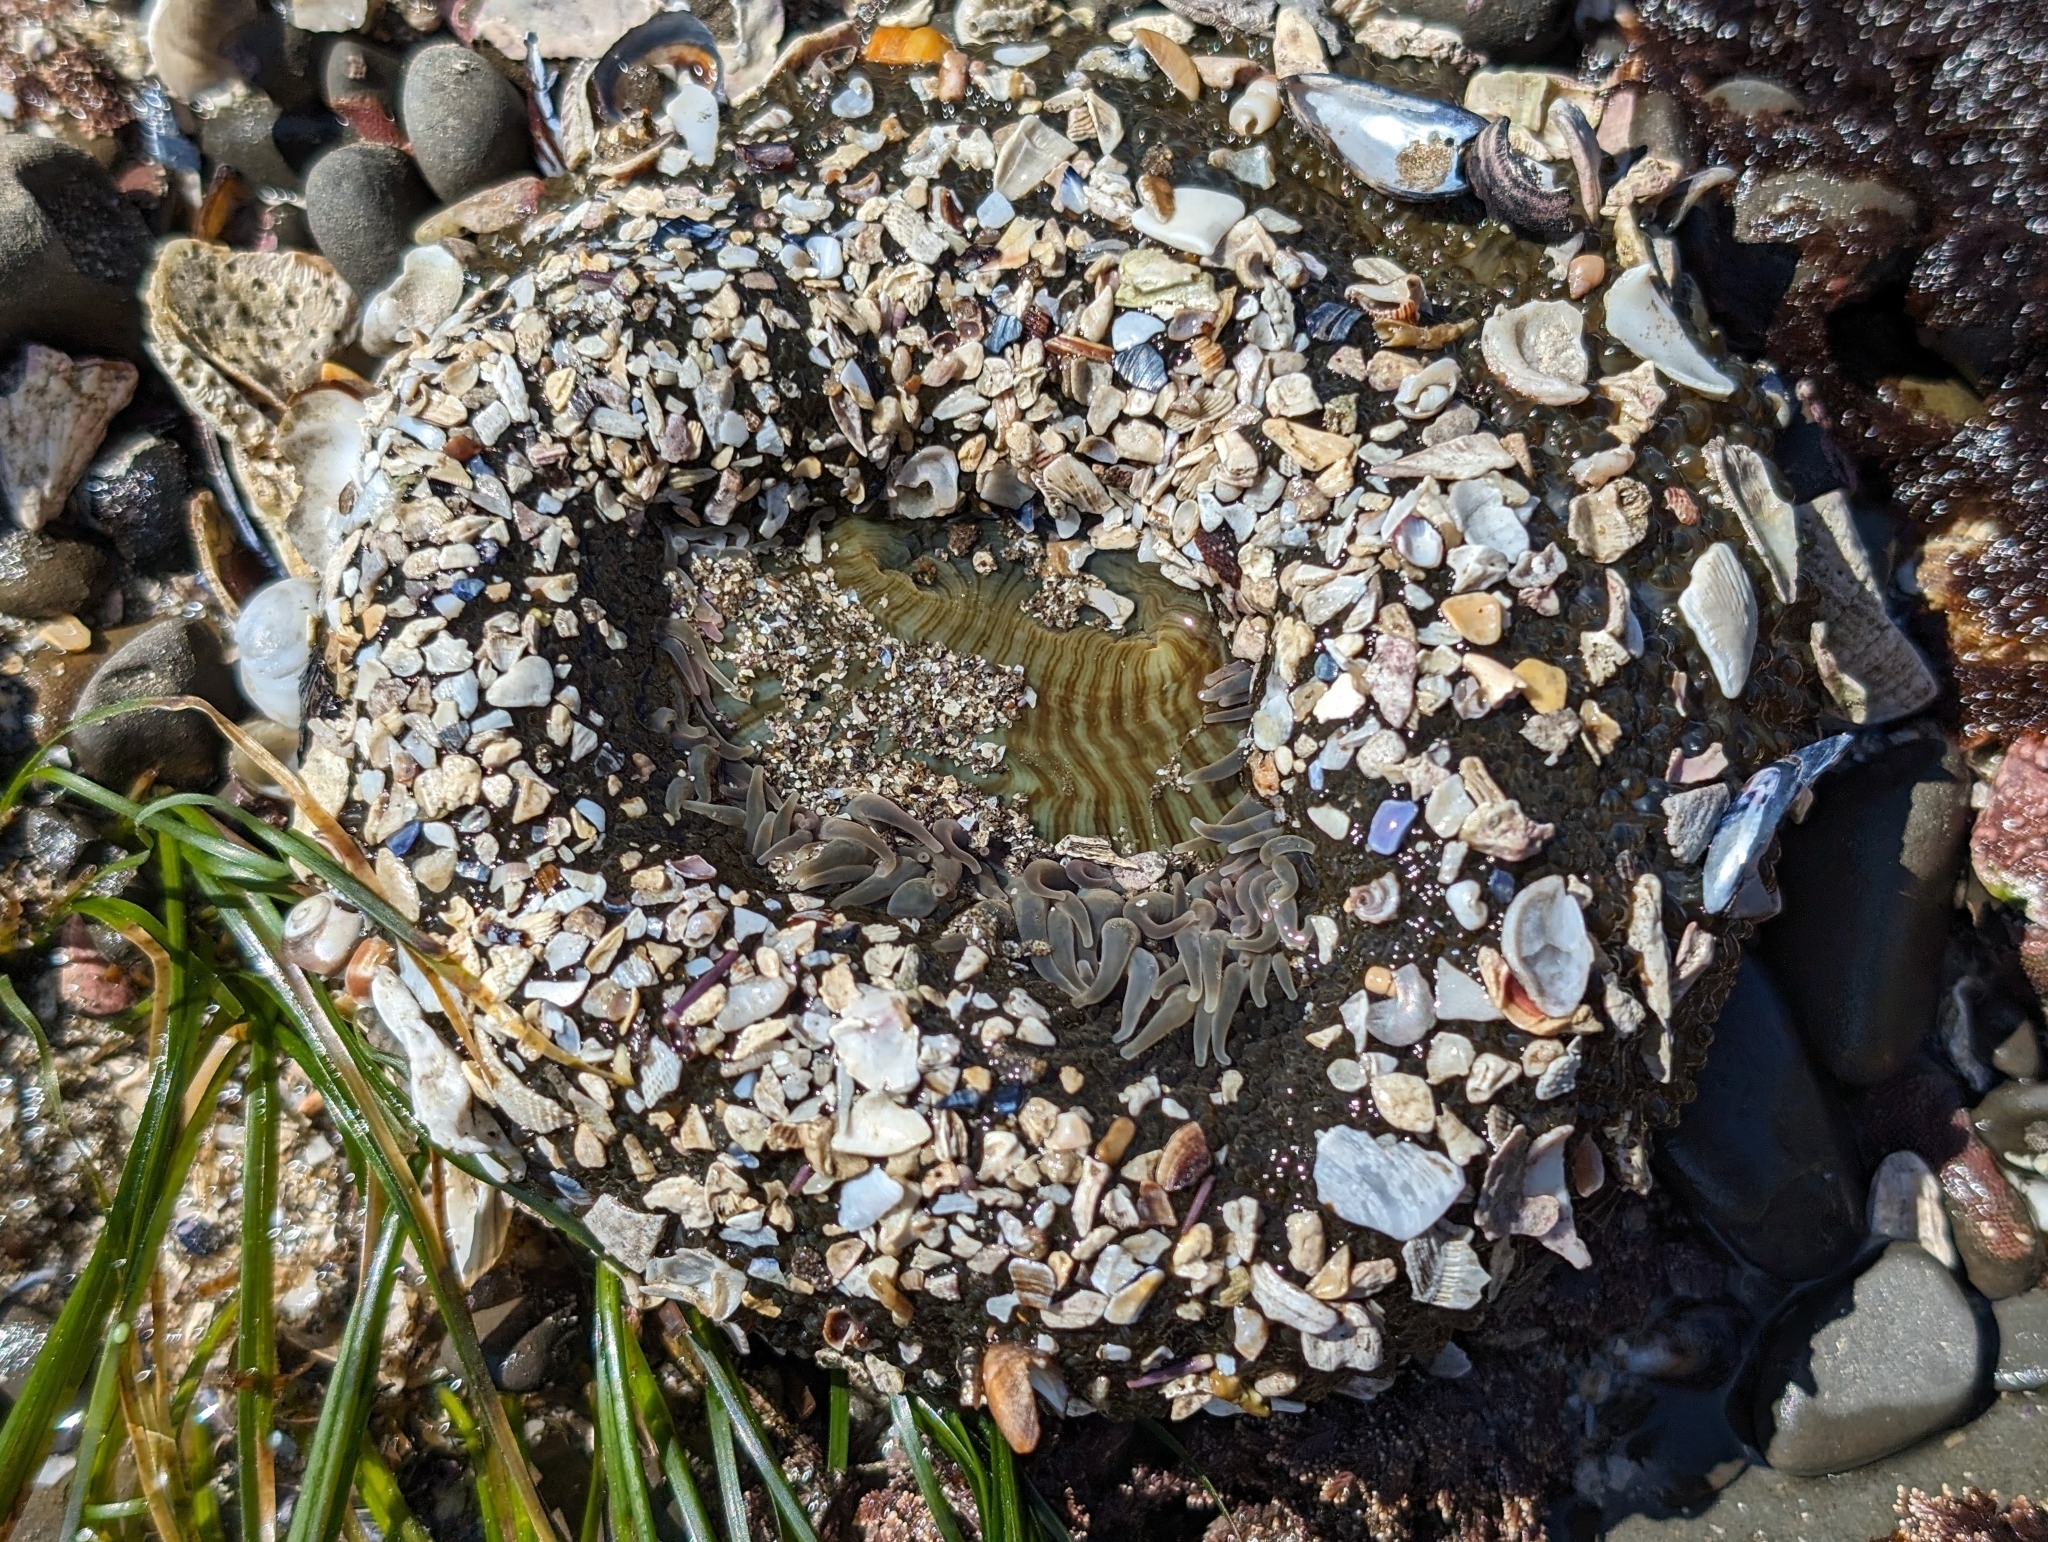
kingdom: Animalia
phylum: Cnidaria
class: Anthozoa
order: Actiniaria
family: Actiniidae
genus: Anthopleura
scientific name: Anthopleura sola
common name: Sun anemone
